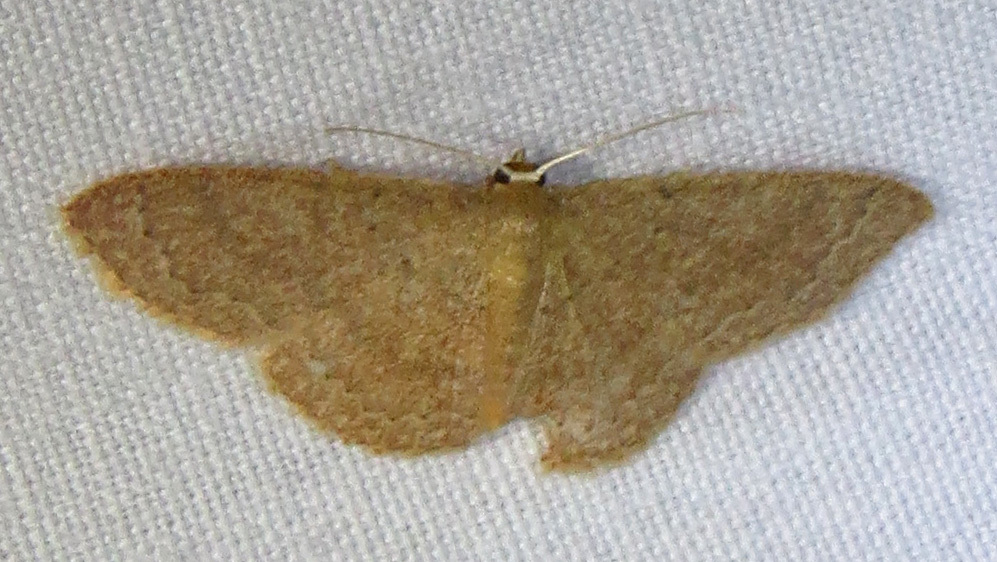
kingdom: Animalia
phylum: Arthropoda
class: Insecta
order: Lepidoptera
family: Geometridae
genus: Pleuroprucha
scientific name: Pleuroprucha insulsaria
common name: Common tan wave
